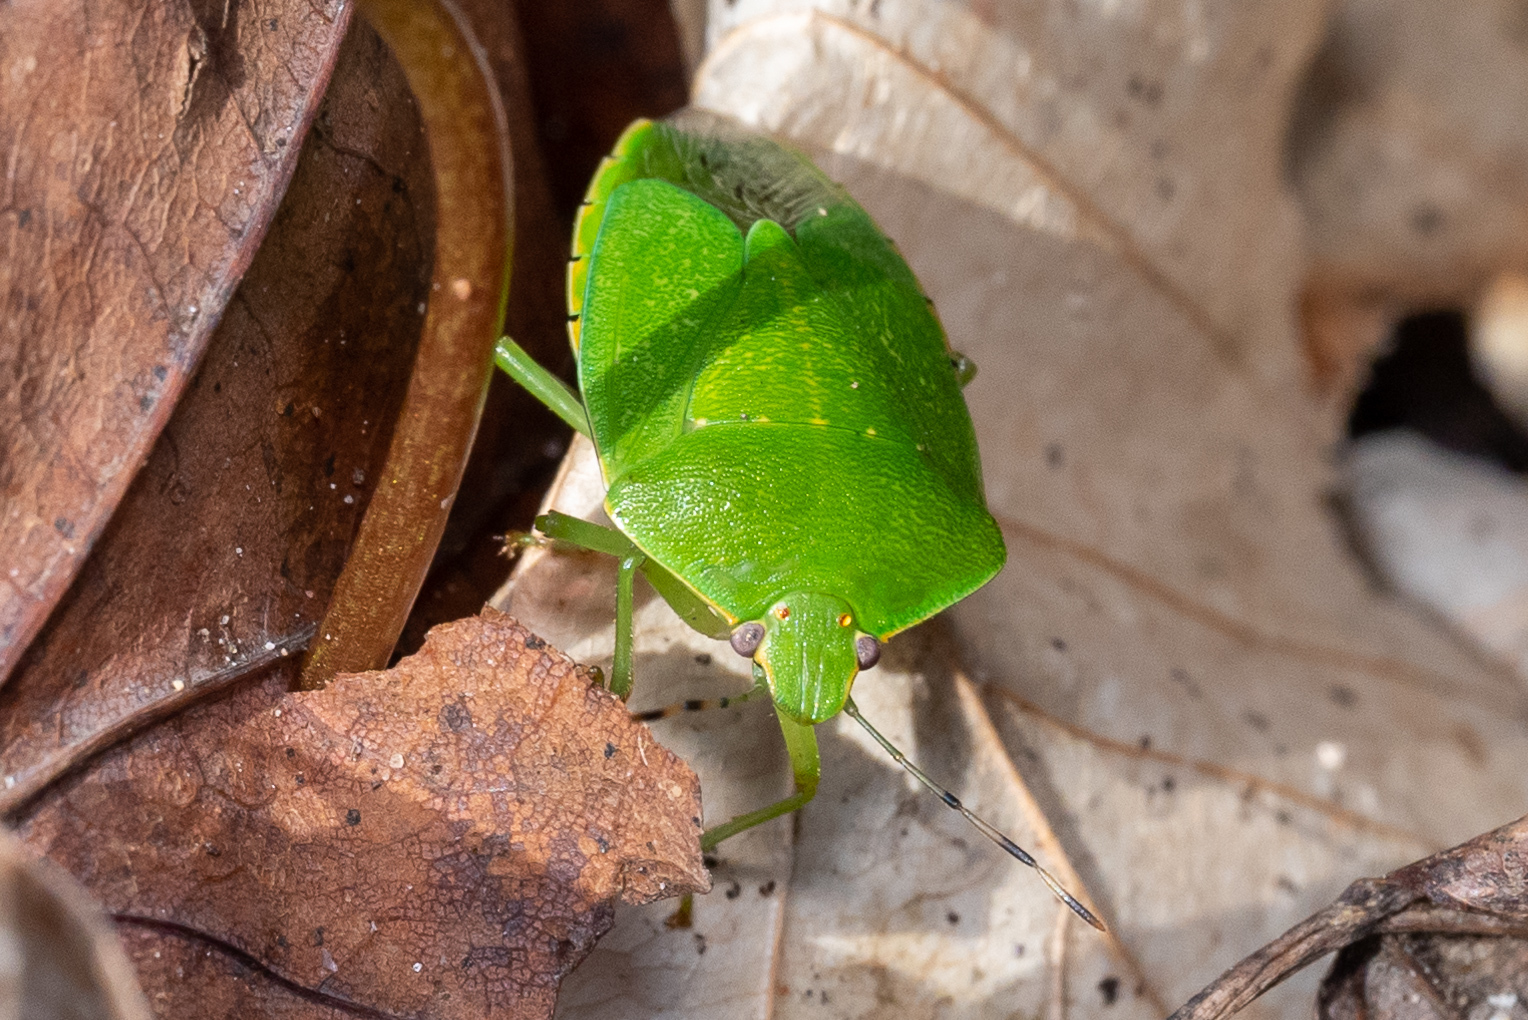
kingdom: Animalia
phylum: Arthropoda
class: Insecta
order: Hemiptera
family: Pentatomidae
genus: Chinavia
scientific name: Chinavia hilaris
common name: Green stink bug
